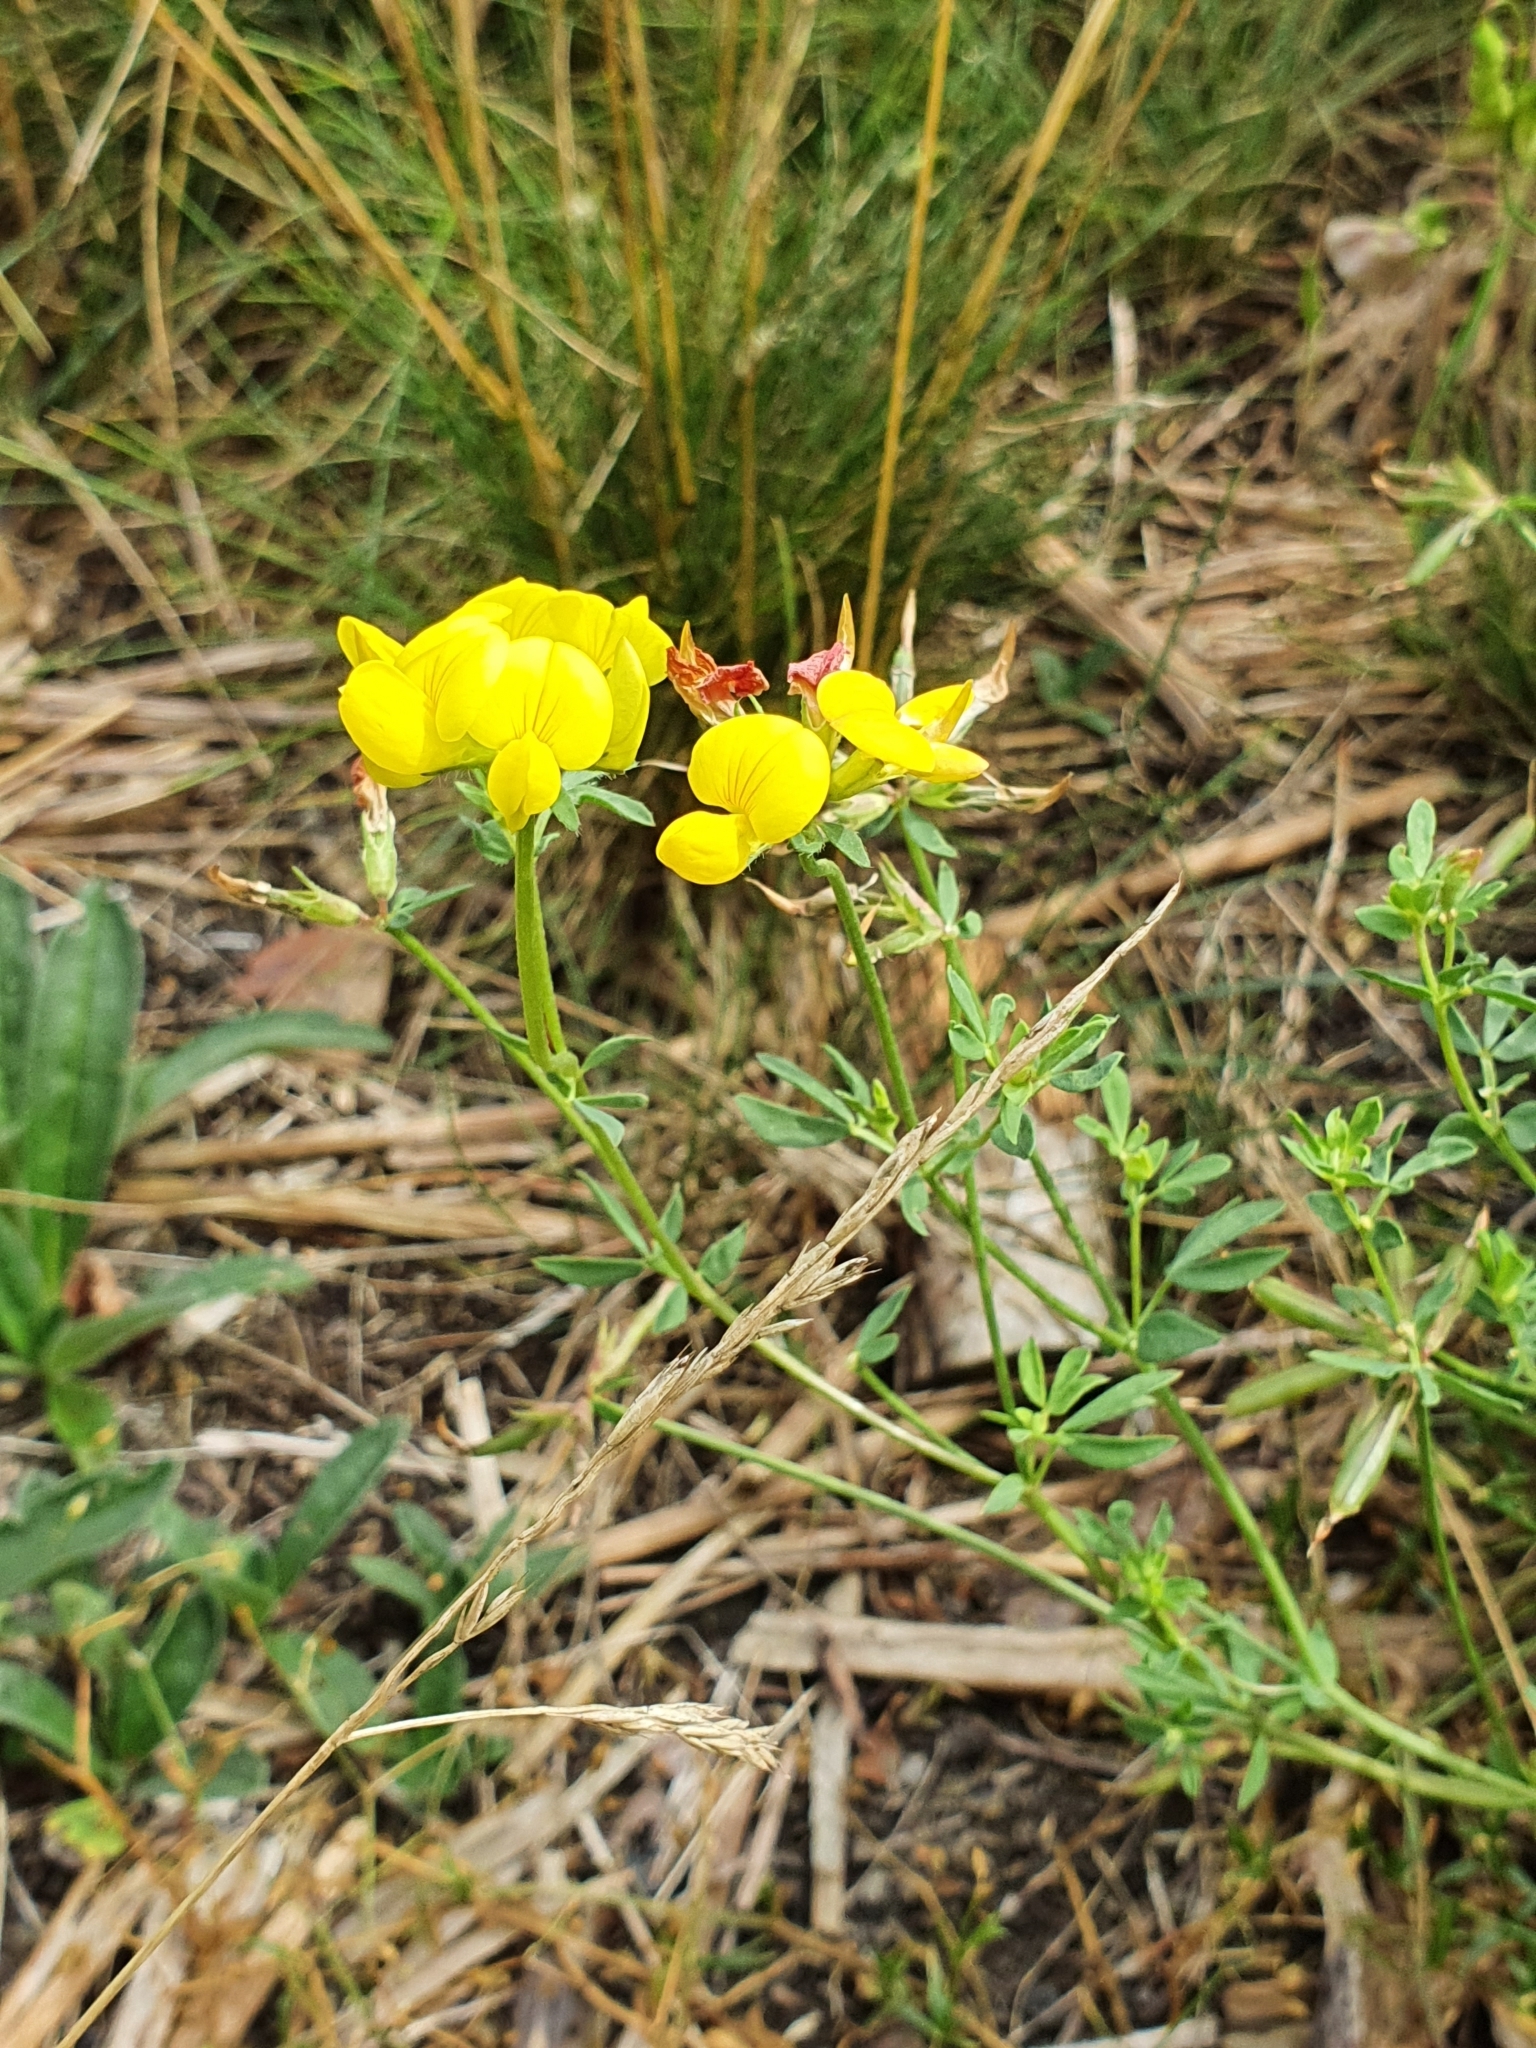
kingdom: Plantae
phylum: Tracheophyta
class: Magnoliopsida
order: Fabales
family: Fabaceae
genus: Lotus
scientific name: Lotus corniculatus
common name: Common bird's-foot-trefoil
